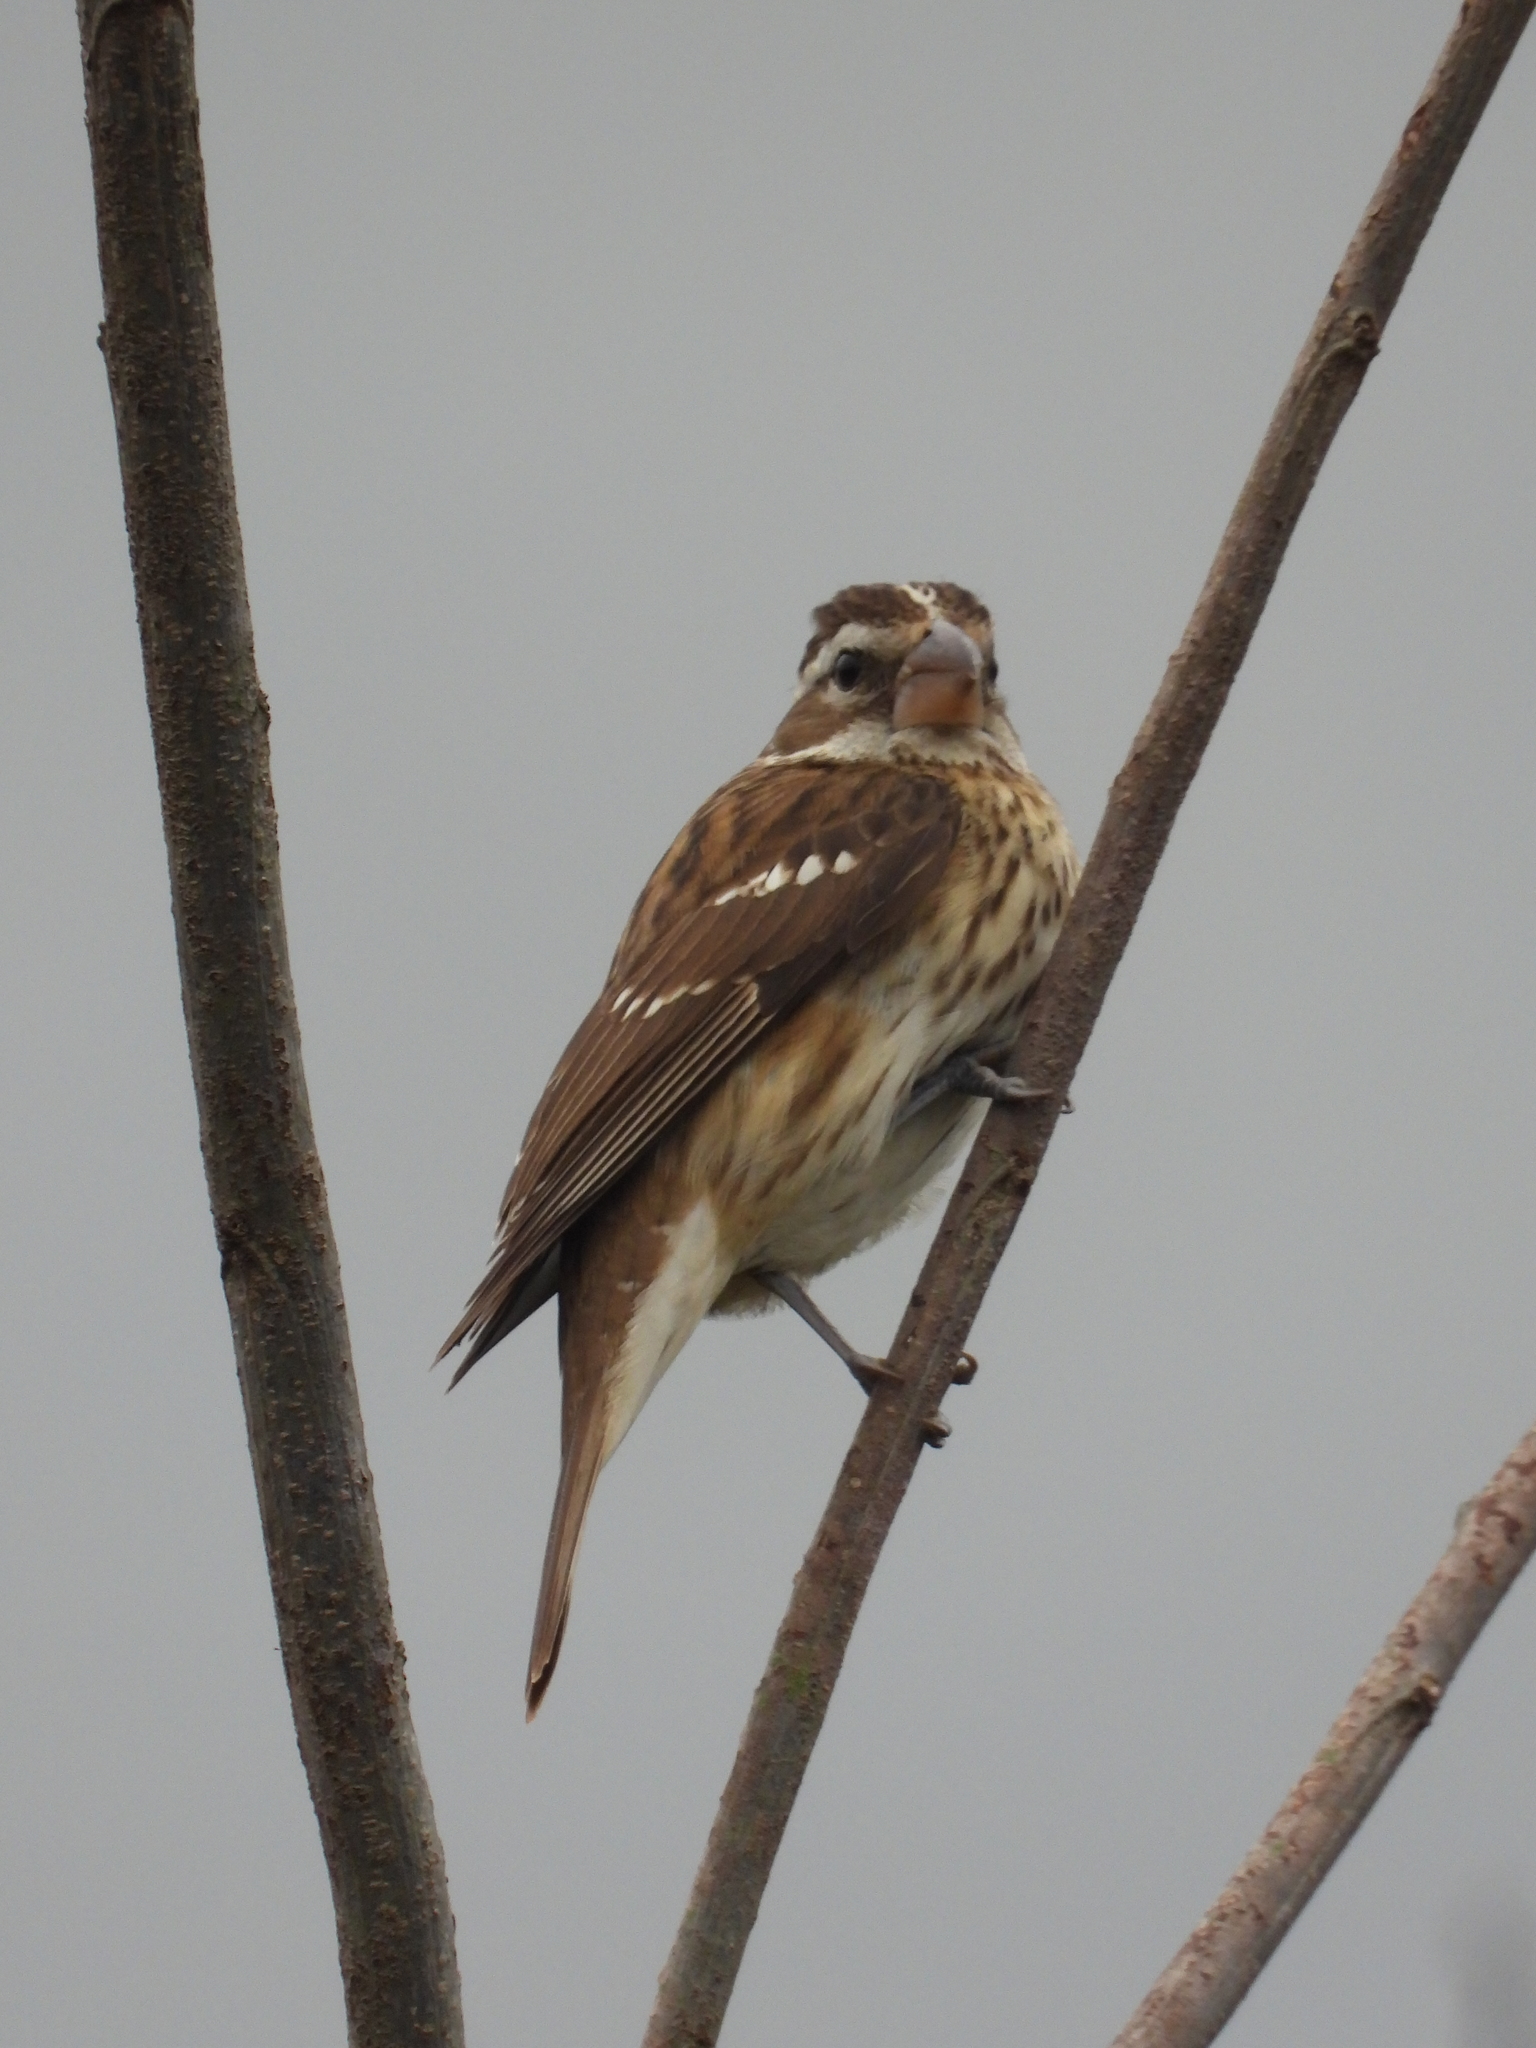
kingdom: Animalia
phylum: Chordata
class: Aves
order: Passeriformes
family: Cardinalidae
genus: Pheucticus
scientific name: Pheucticus ludovicianus
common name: Rose-breasted grosbeak
